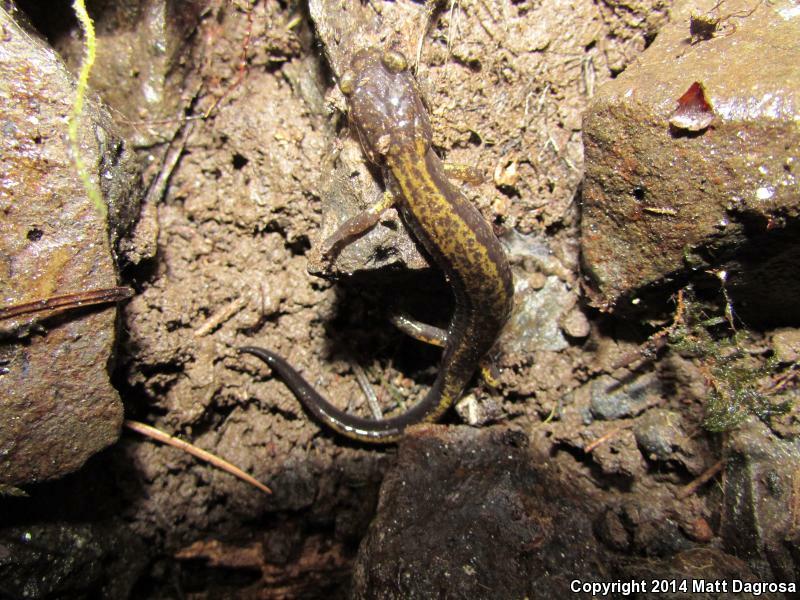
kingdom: Animalia
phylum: Chordata
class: Amphibia
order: Caudata
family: Plethodontidae
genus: Plethodon
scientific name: Plethodon dunni
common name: Dunn's salamander
